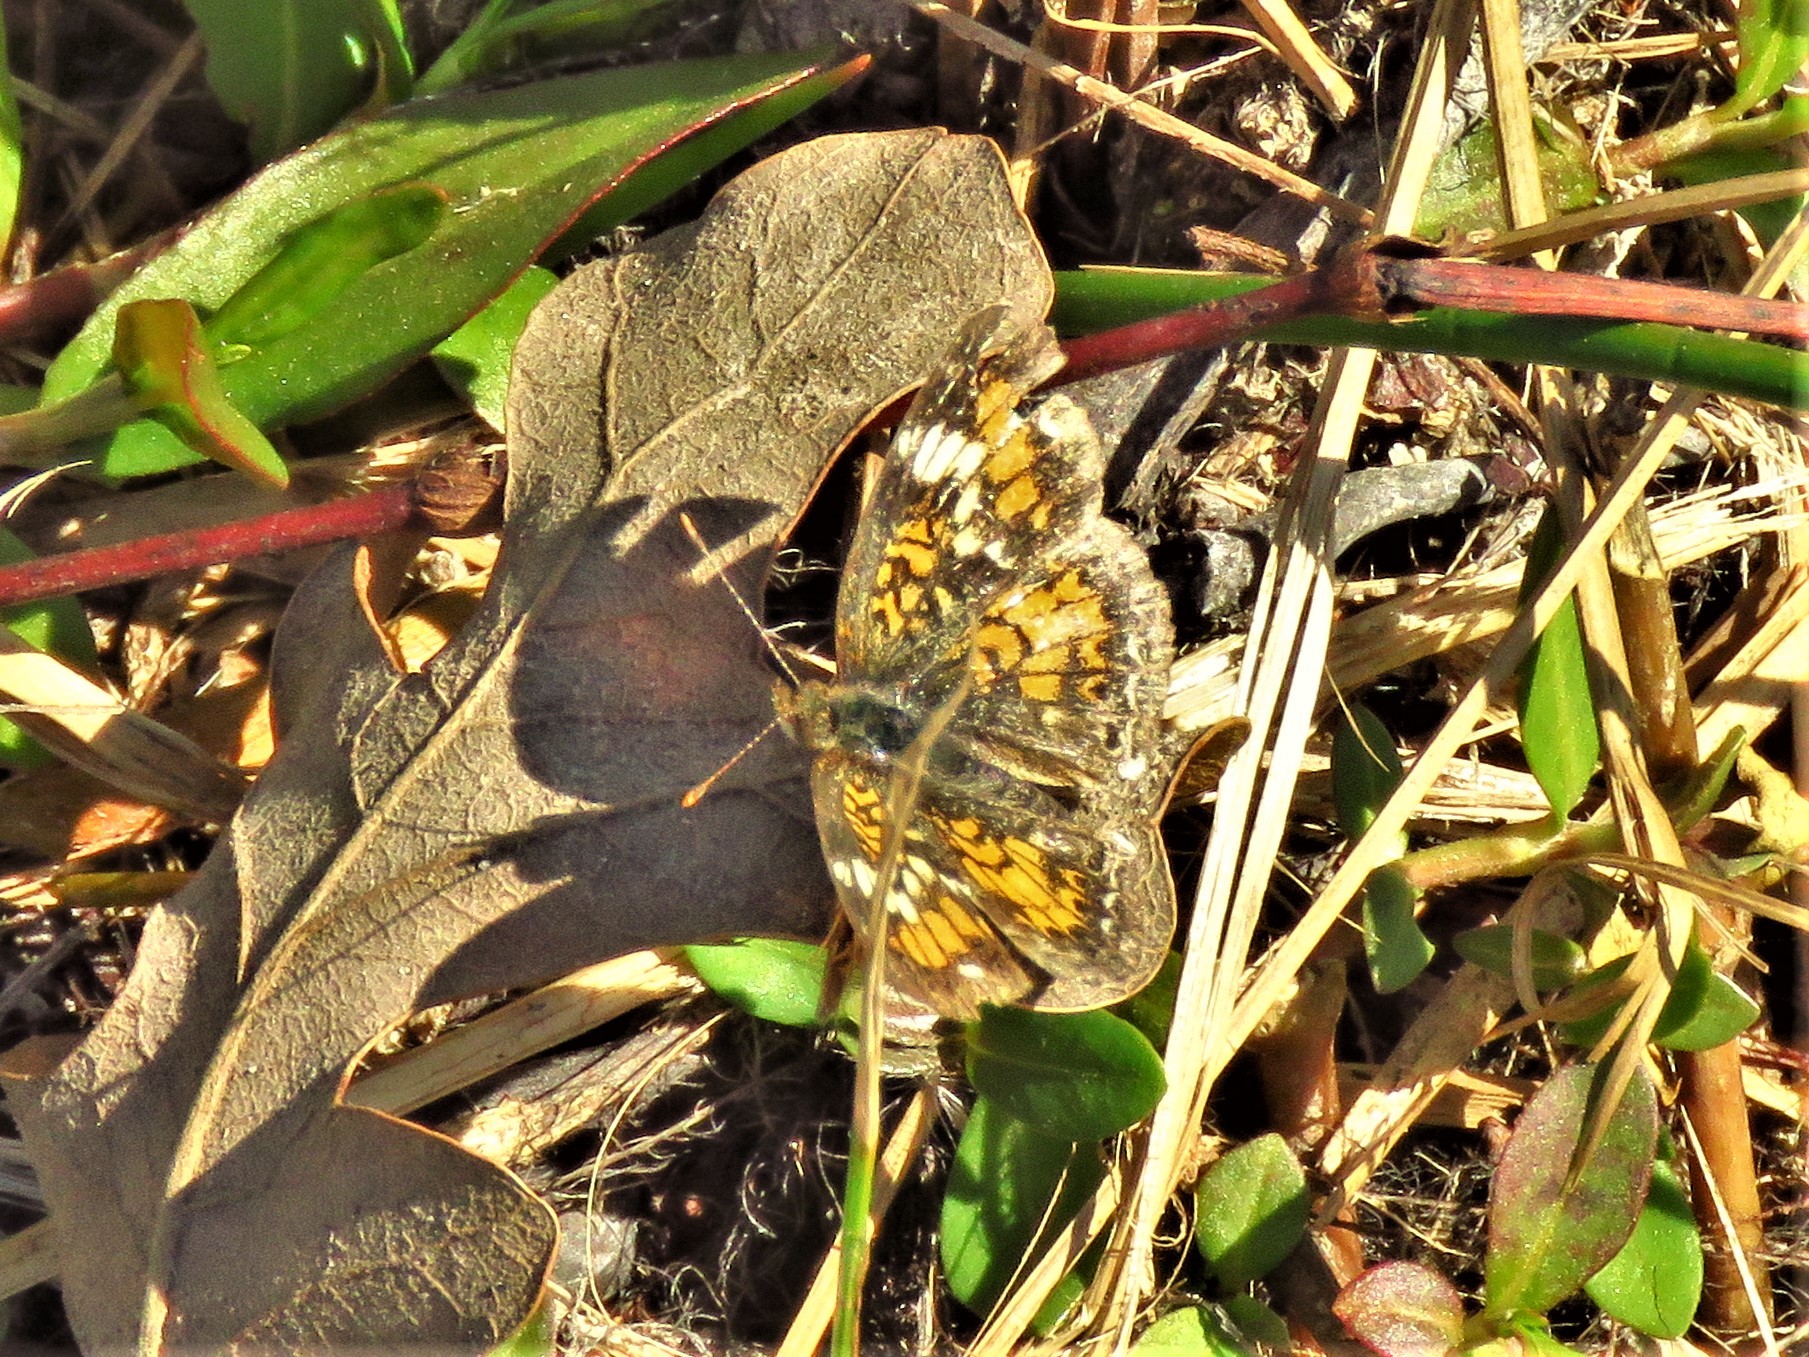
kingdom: Animalia
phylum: Arthropoda
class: Insecta
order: Lepidoptera
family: Nymphalidae
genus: Phyciodes
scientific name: Phyciodes phaon
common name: Phaon crescent
